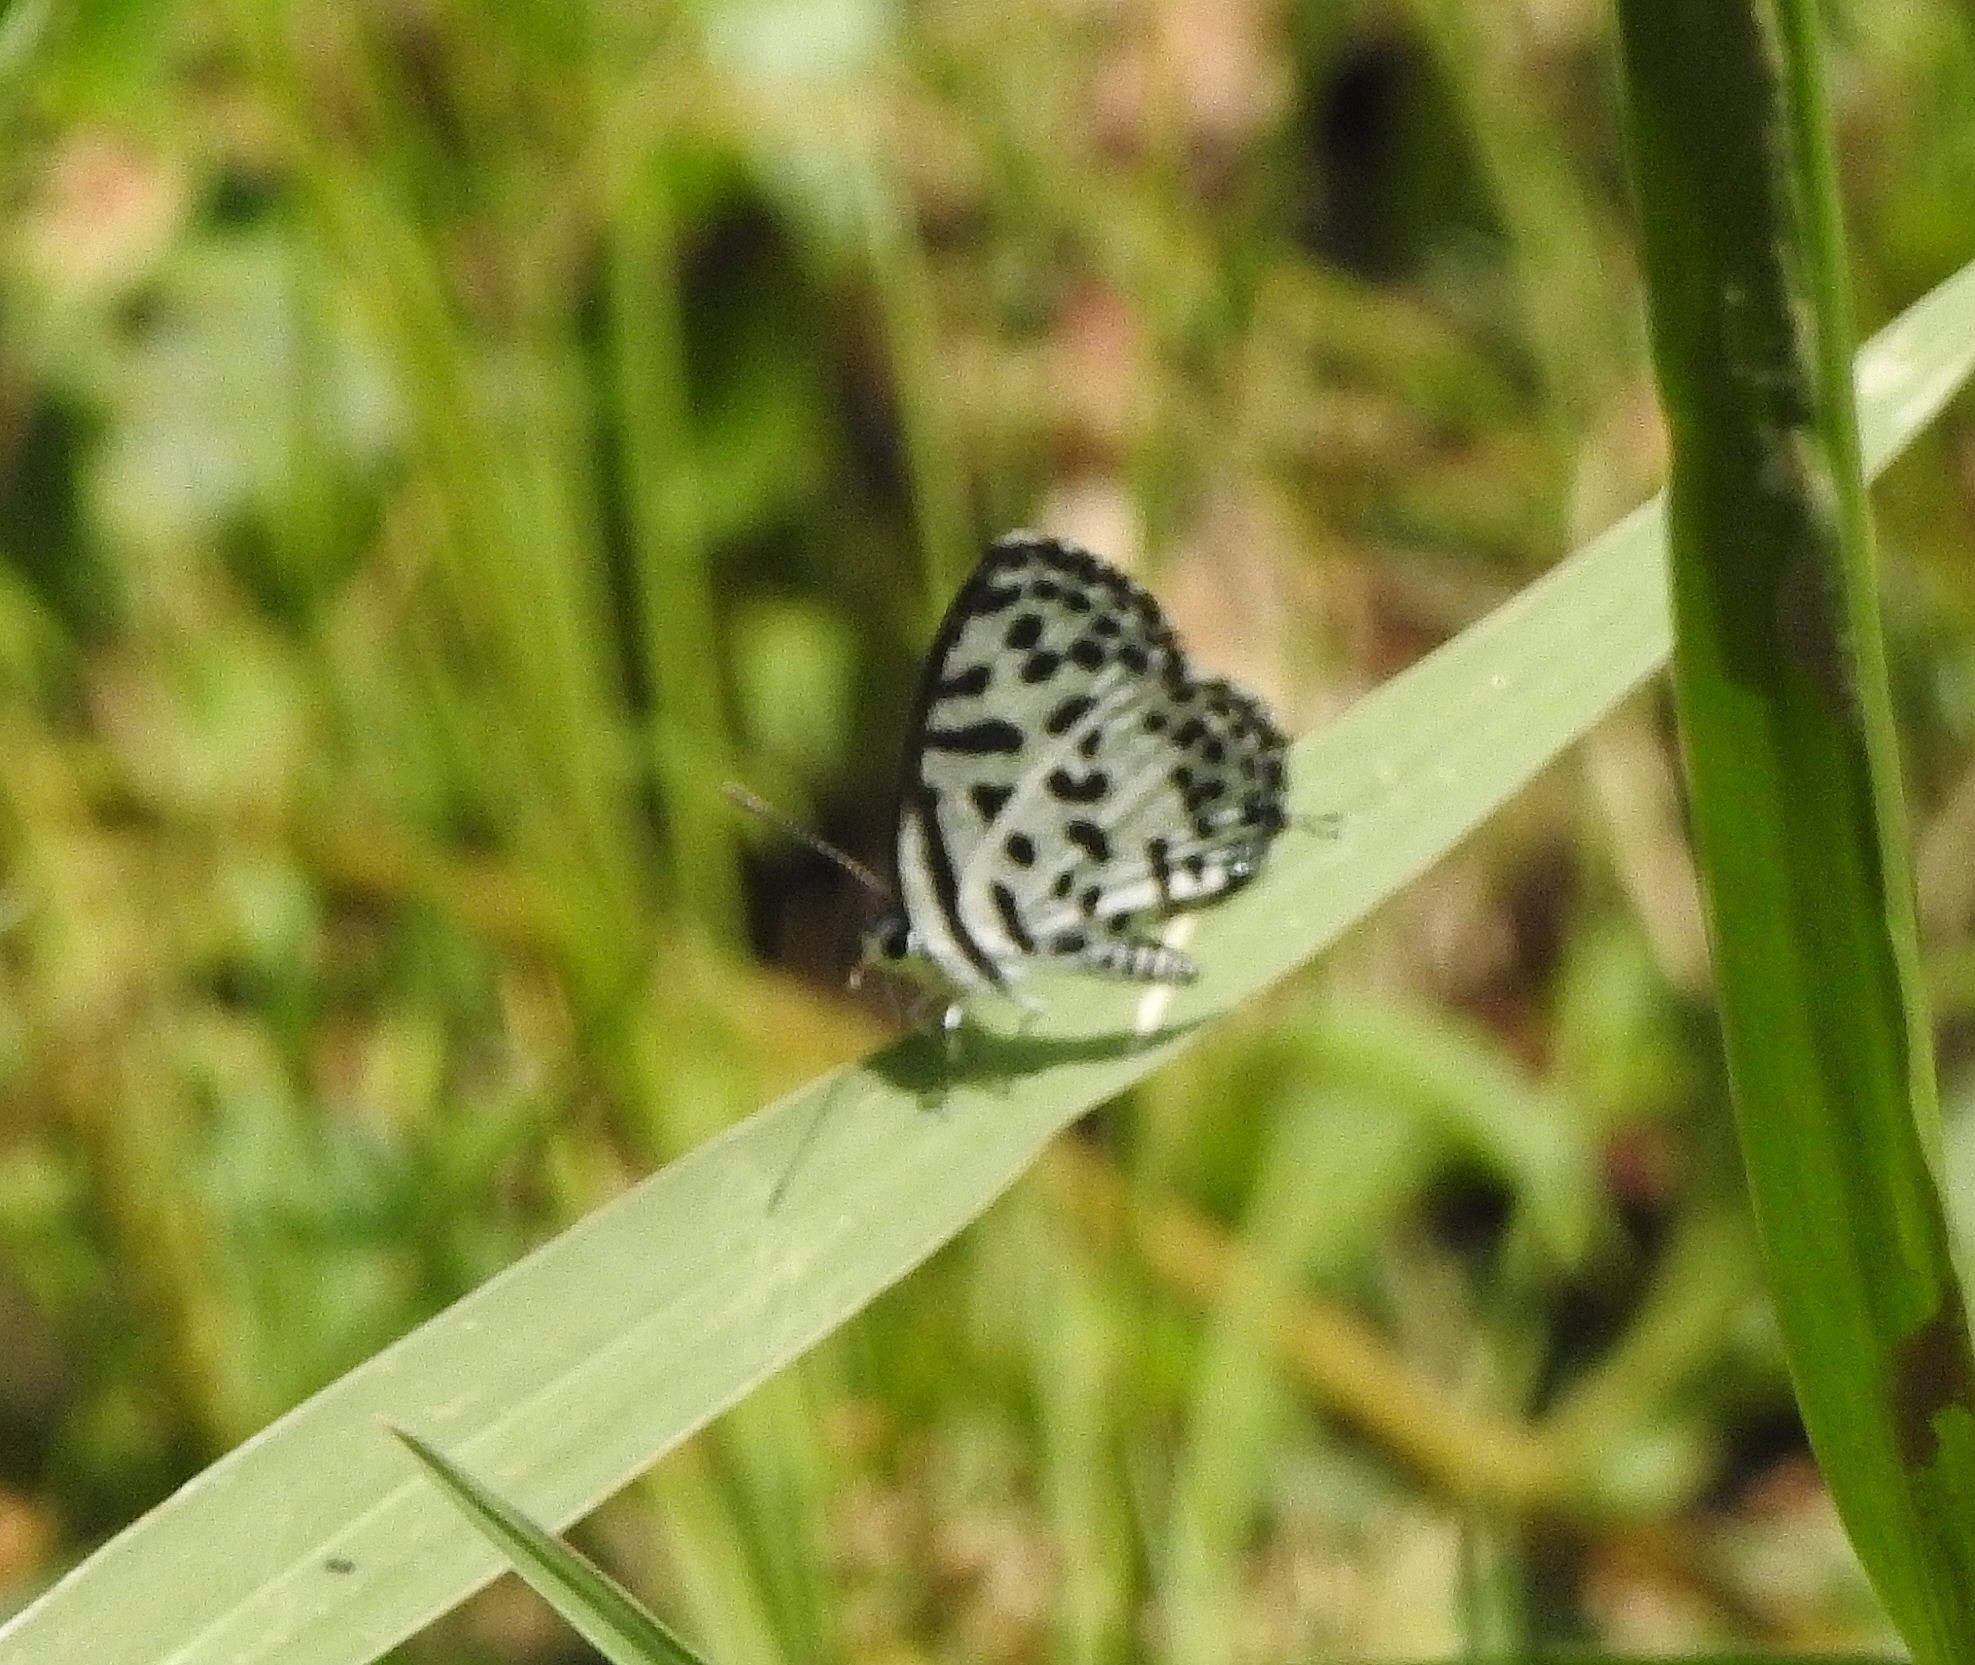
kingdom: Animalia
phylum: Arthropoda
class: Insecta
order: Lepidoptera
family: Lycaenidae
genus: Castalius
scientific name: Castalius rosimon
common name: Common pierrot
